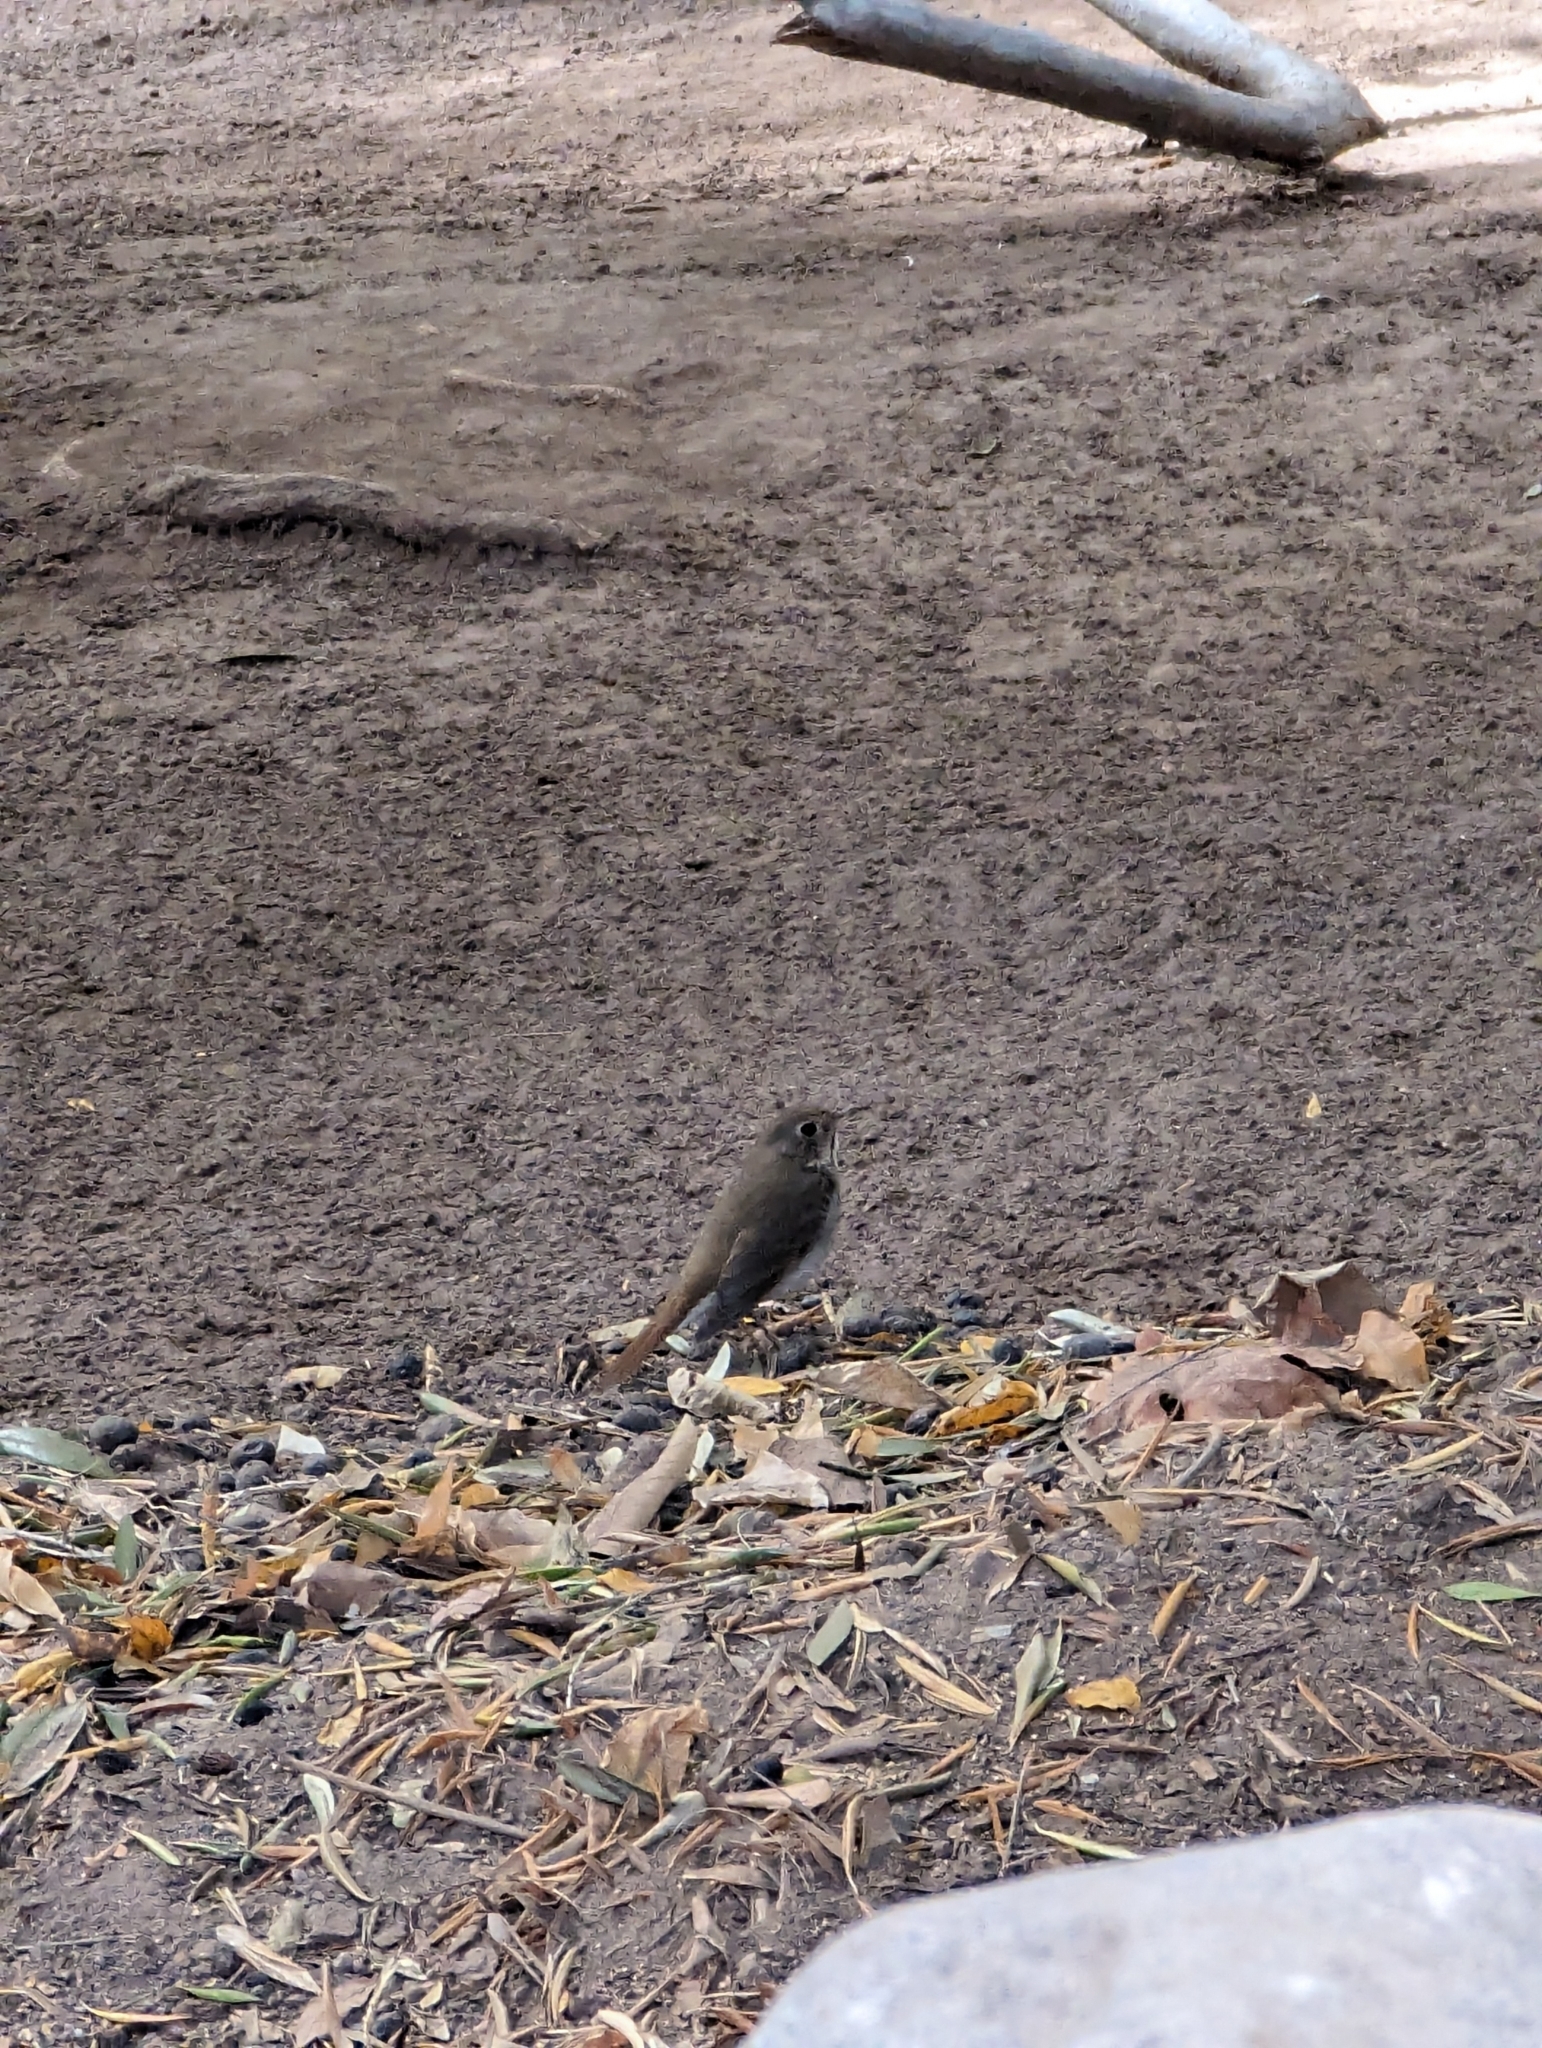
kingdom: Animalia
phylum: Chordata
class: Aves
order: Passeriformes
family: Turdidae
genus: Catharus
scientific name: Catharus guttatus
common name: Hermit thrush
